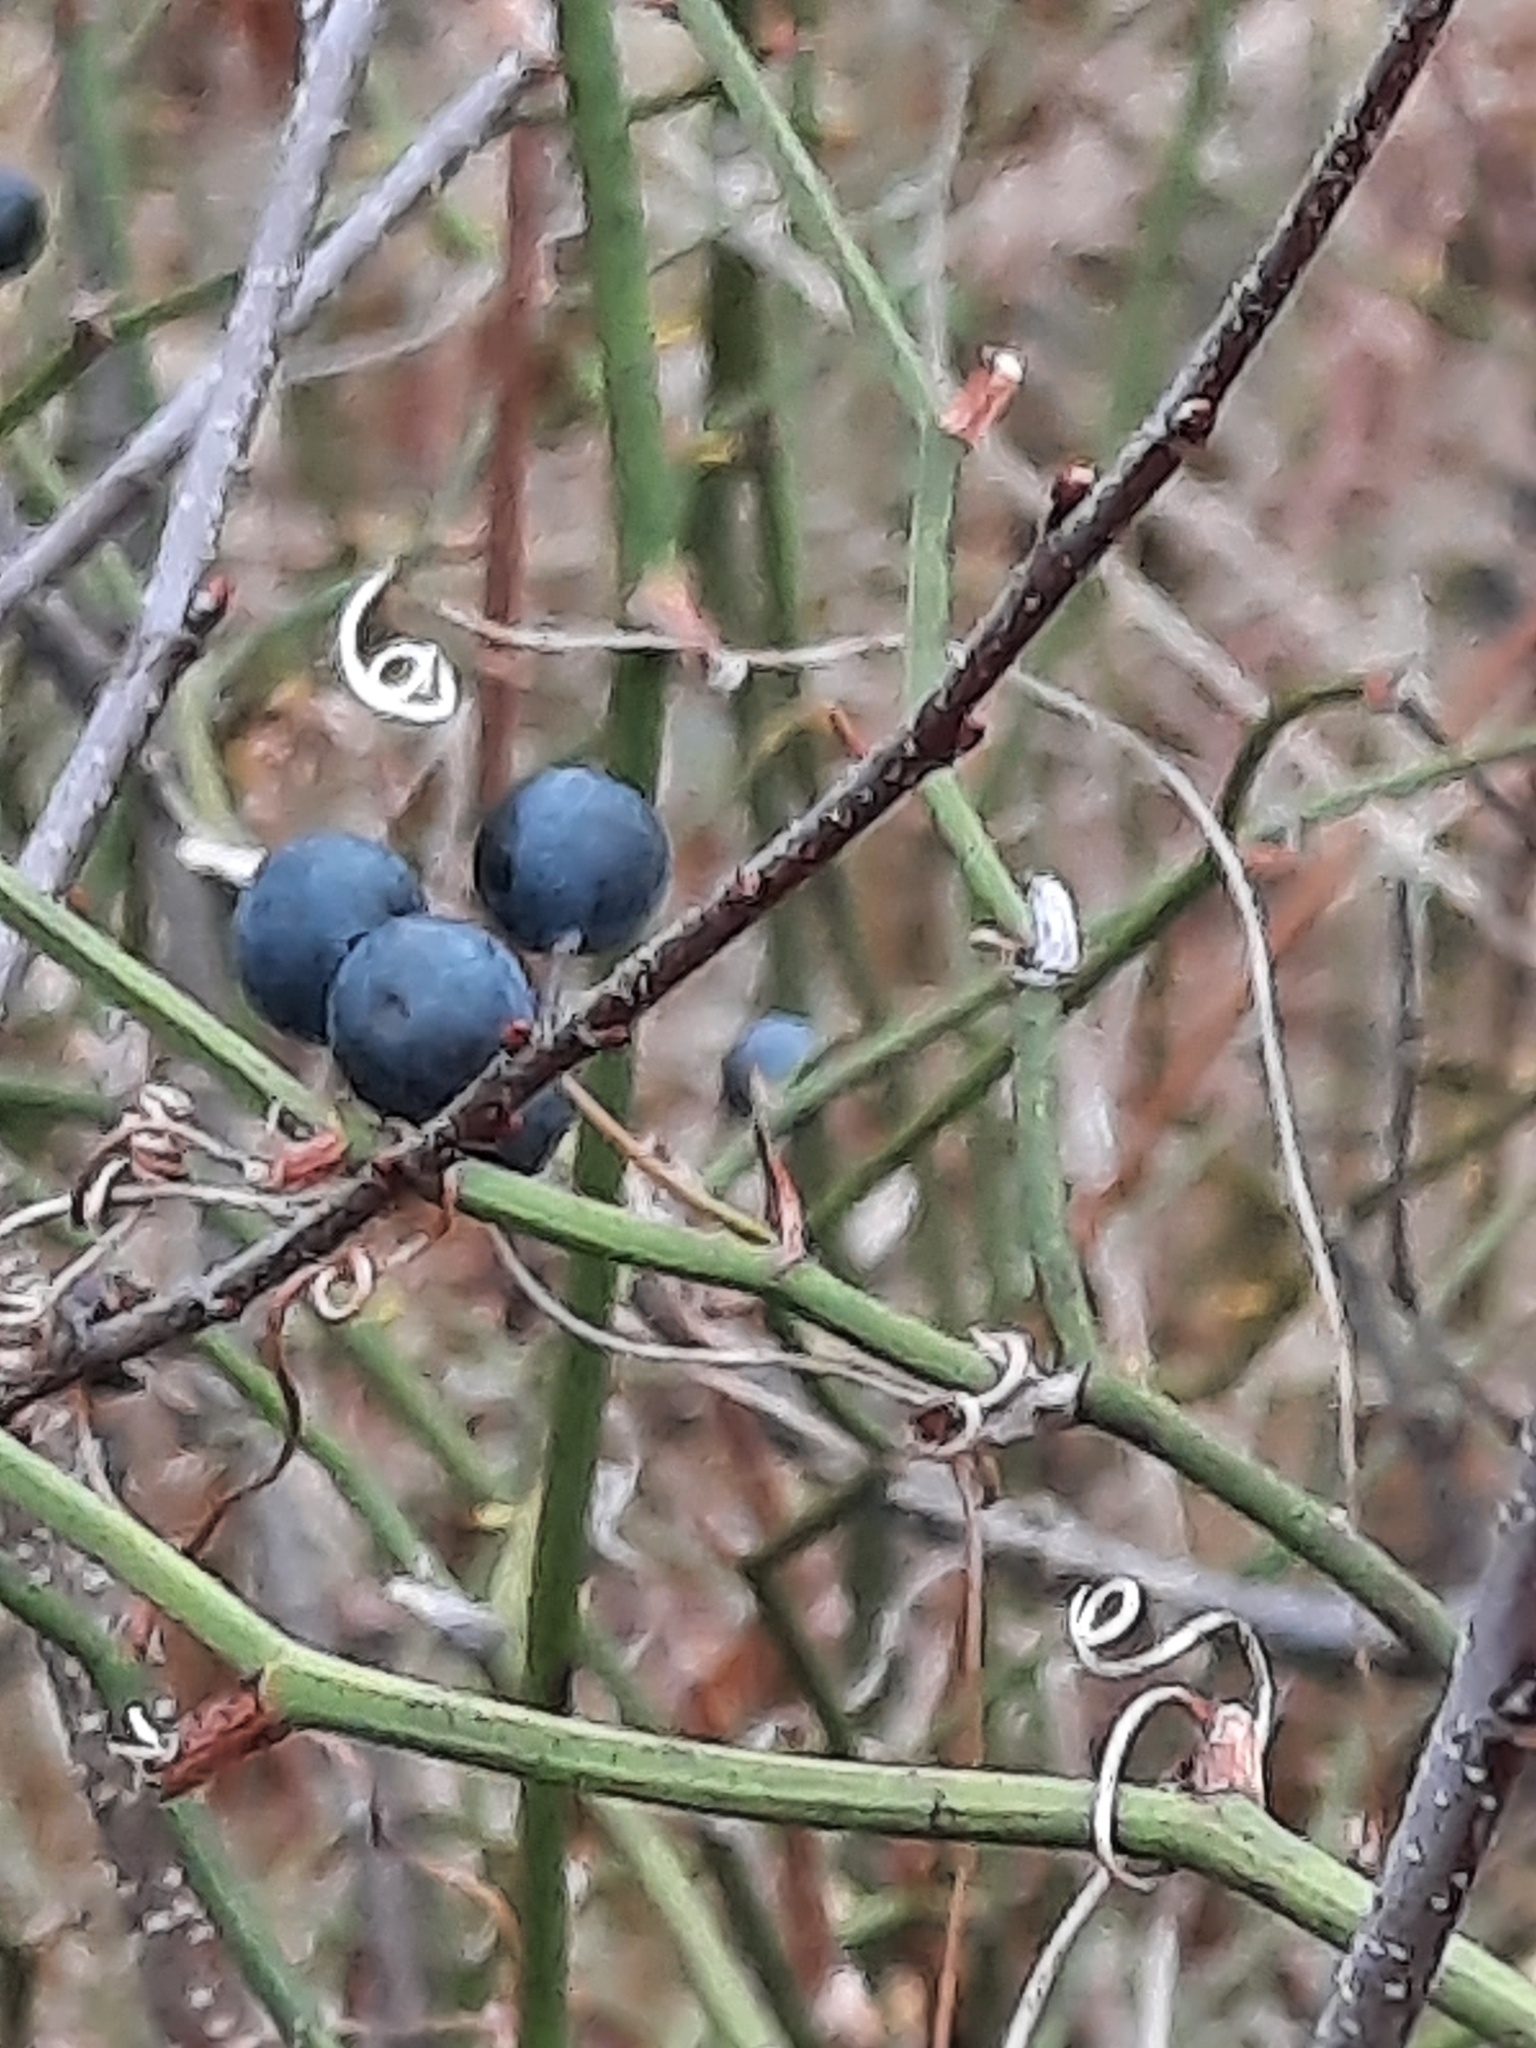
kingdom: Plantae
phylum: Tracheophyta
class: Liliopsida
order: Liliales
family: Smilacaceae
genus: Smilax
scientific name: Smilax rotundifolia
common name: Bullbriar
